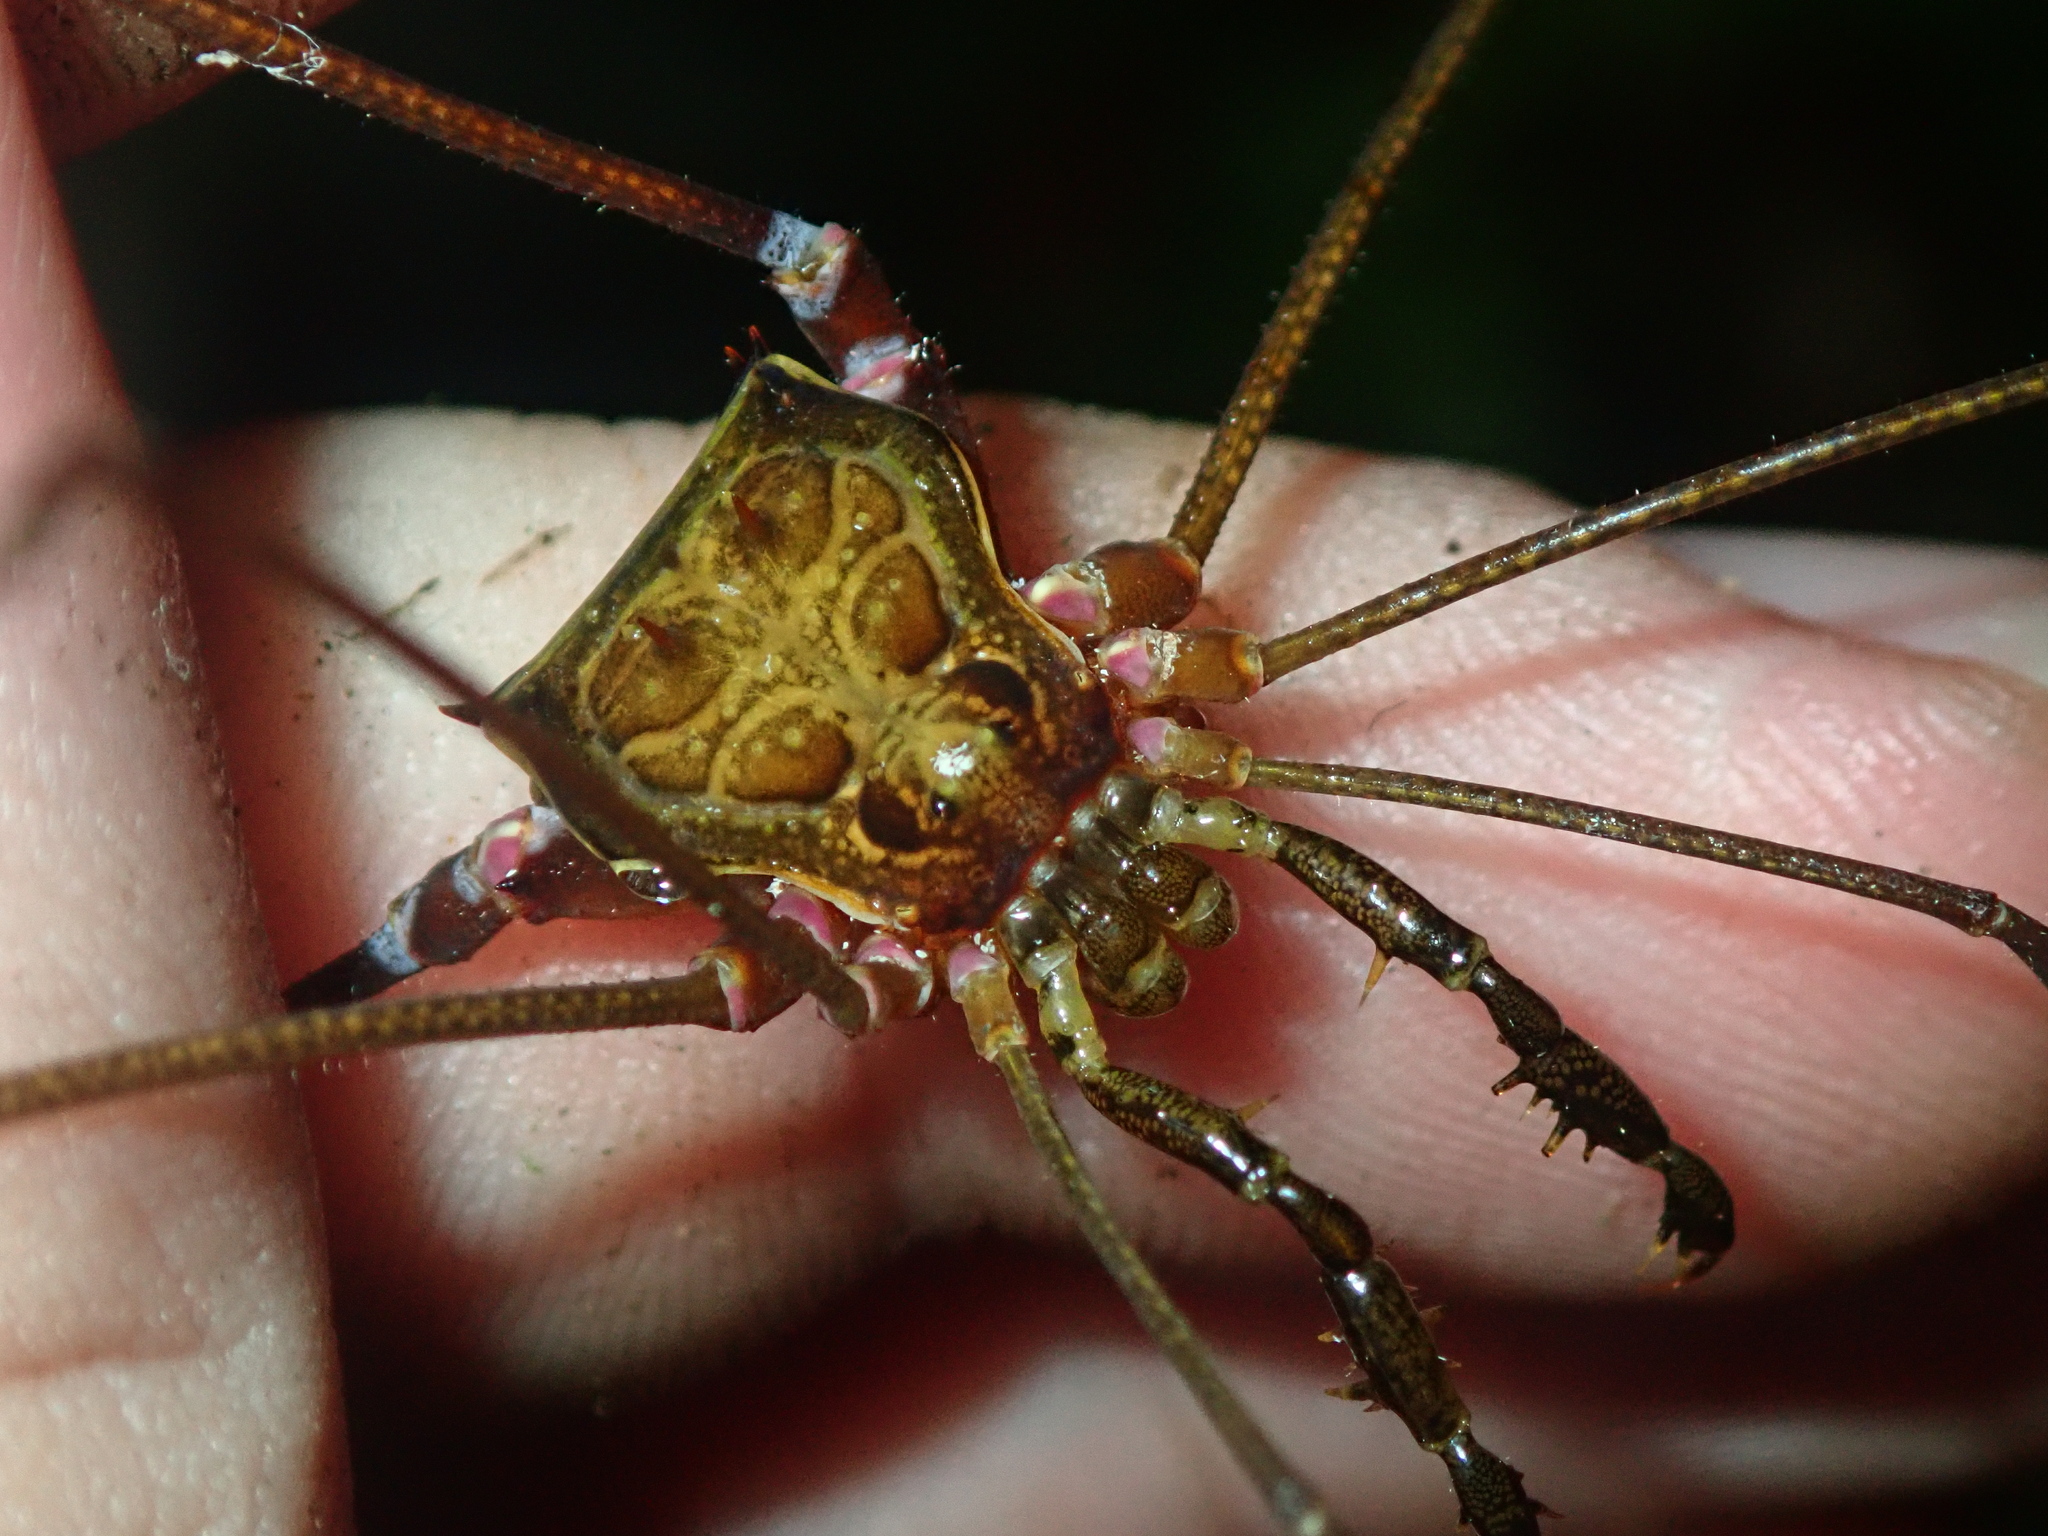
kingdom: Animalia
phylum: Arthropoda
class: Arachnida
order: Opiliones
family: Gonyleptidae
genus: Serracutisoma
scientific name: Serracutisoma inerme
